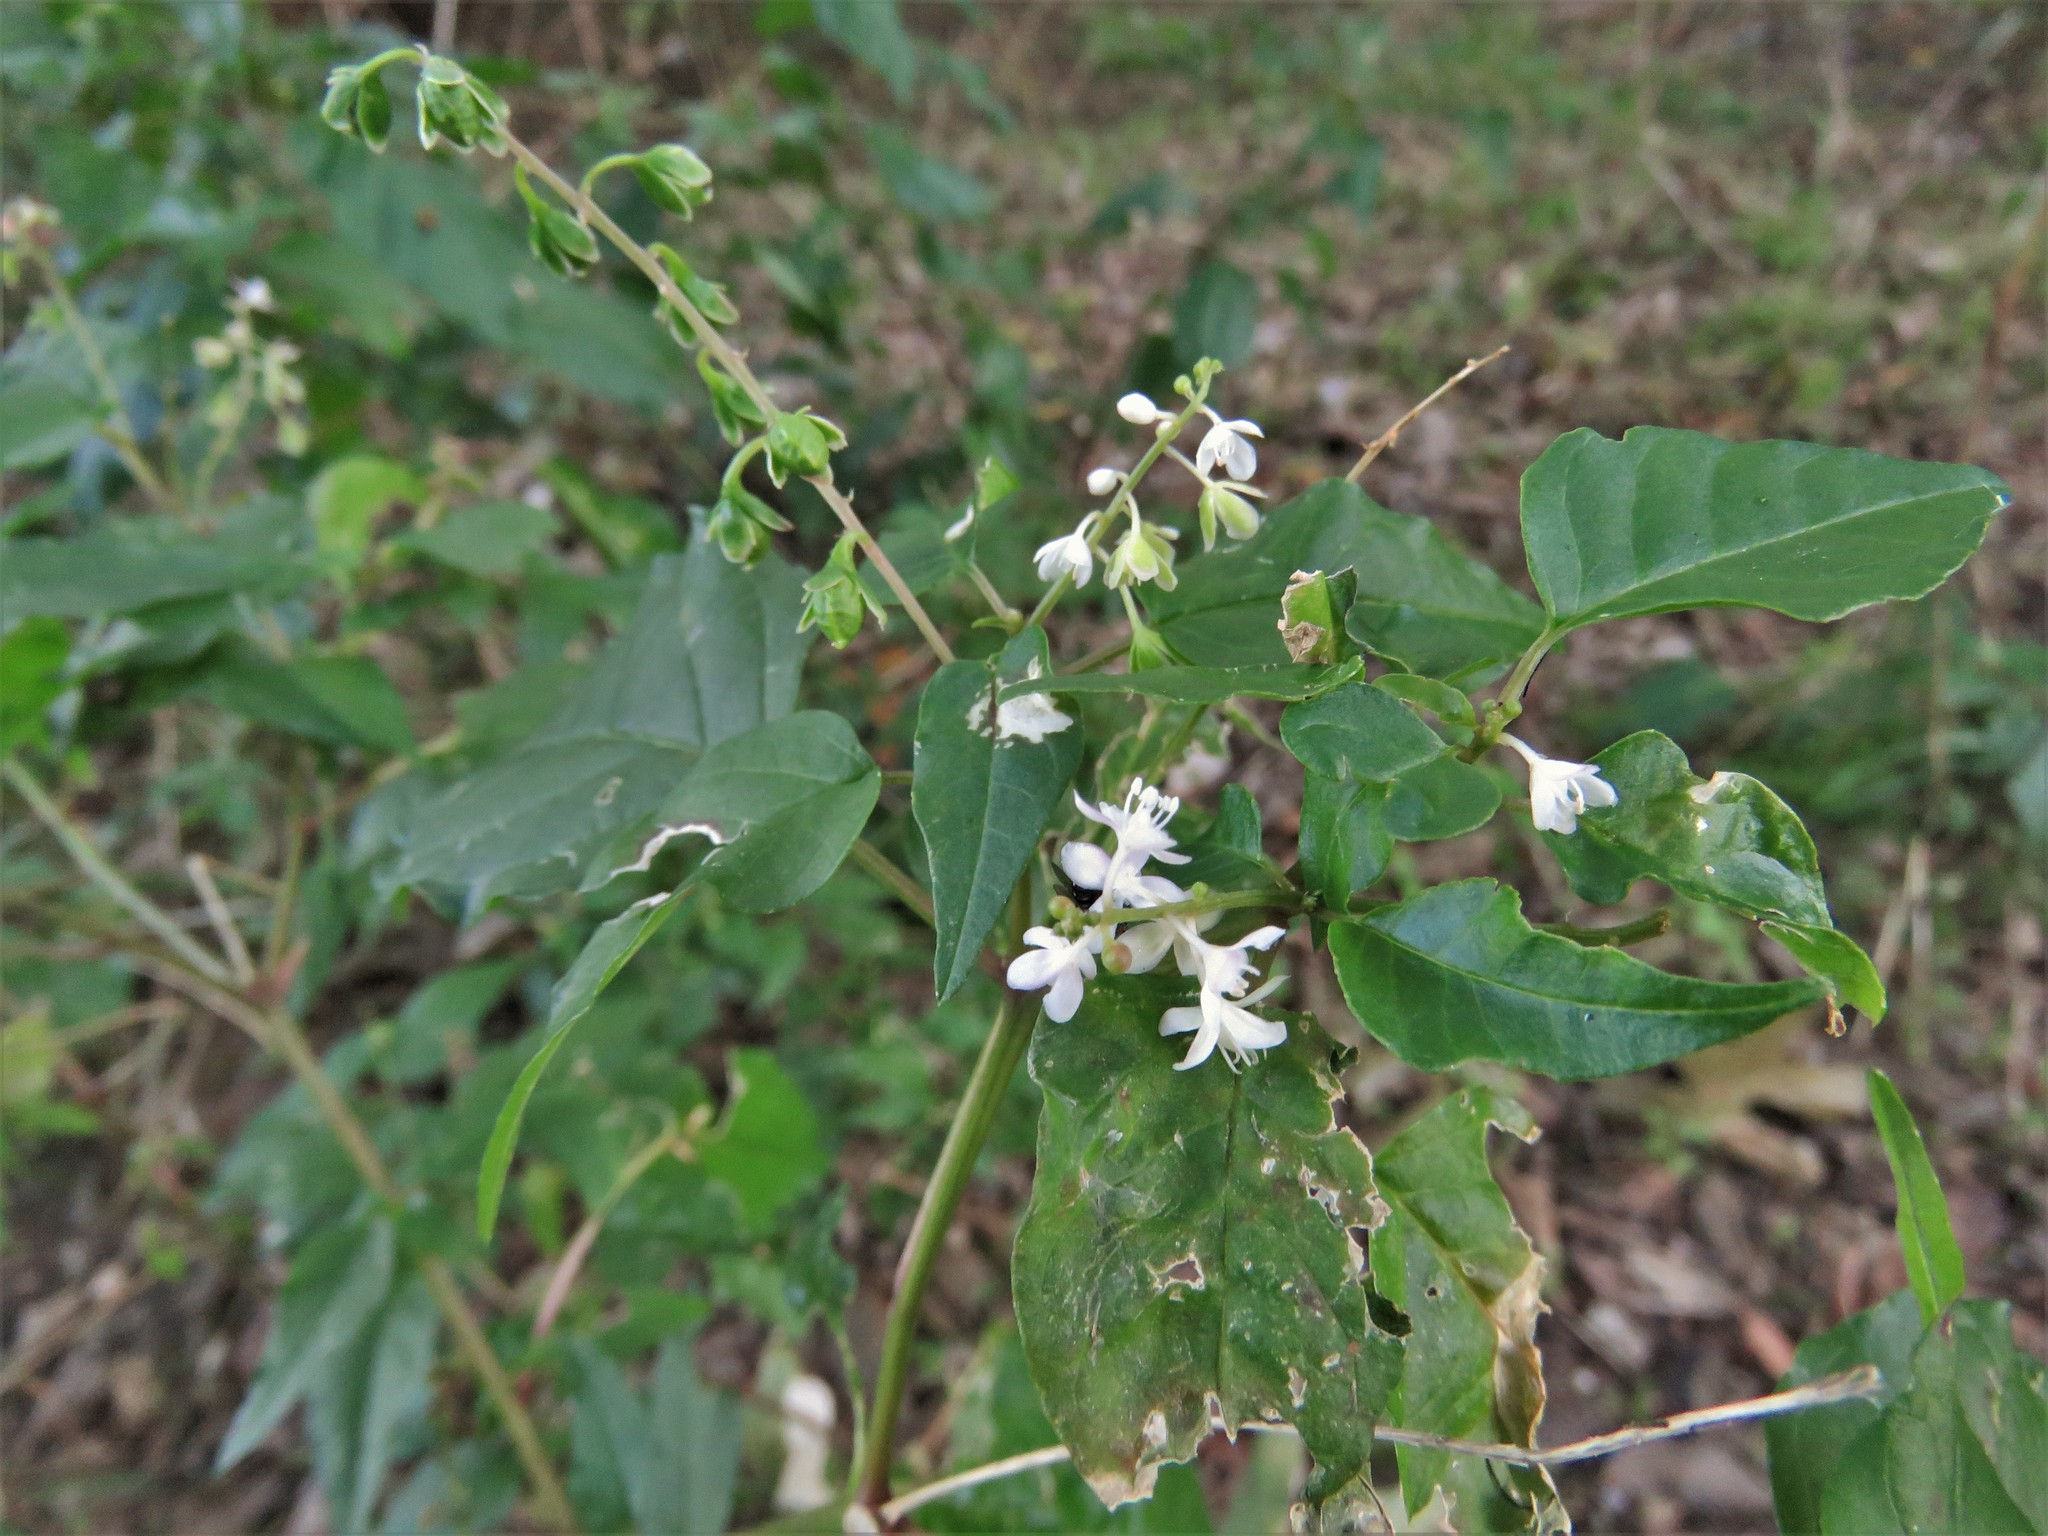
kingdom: Plantae
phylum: Tracheophyta
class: Magnoliopsida
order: Caryophyllales
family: Phytolaccaceae
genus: Rivina
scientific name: Rivina humilis
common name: Rougeplant
